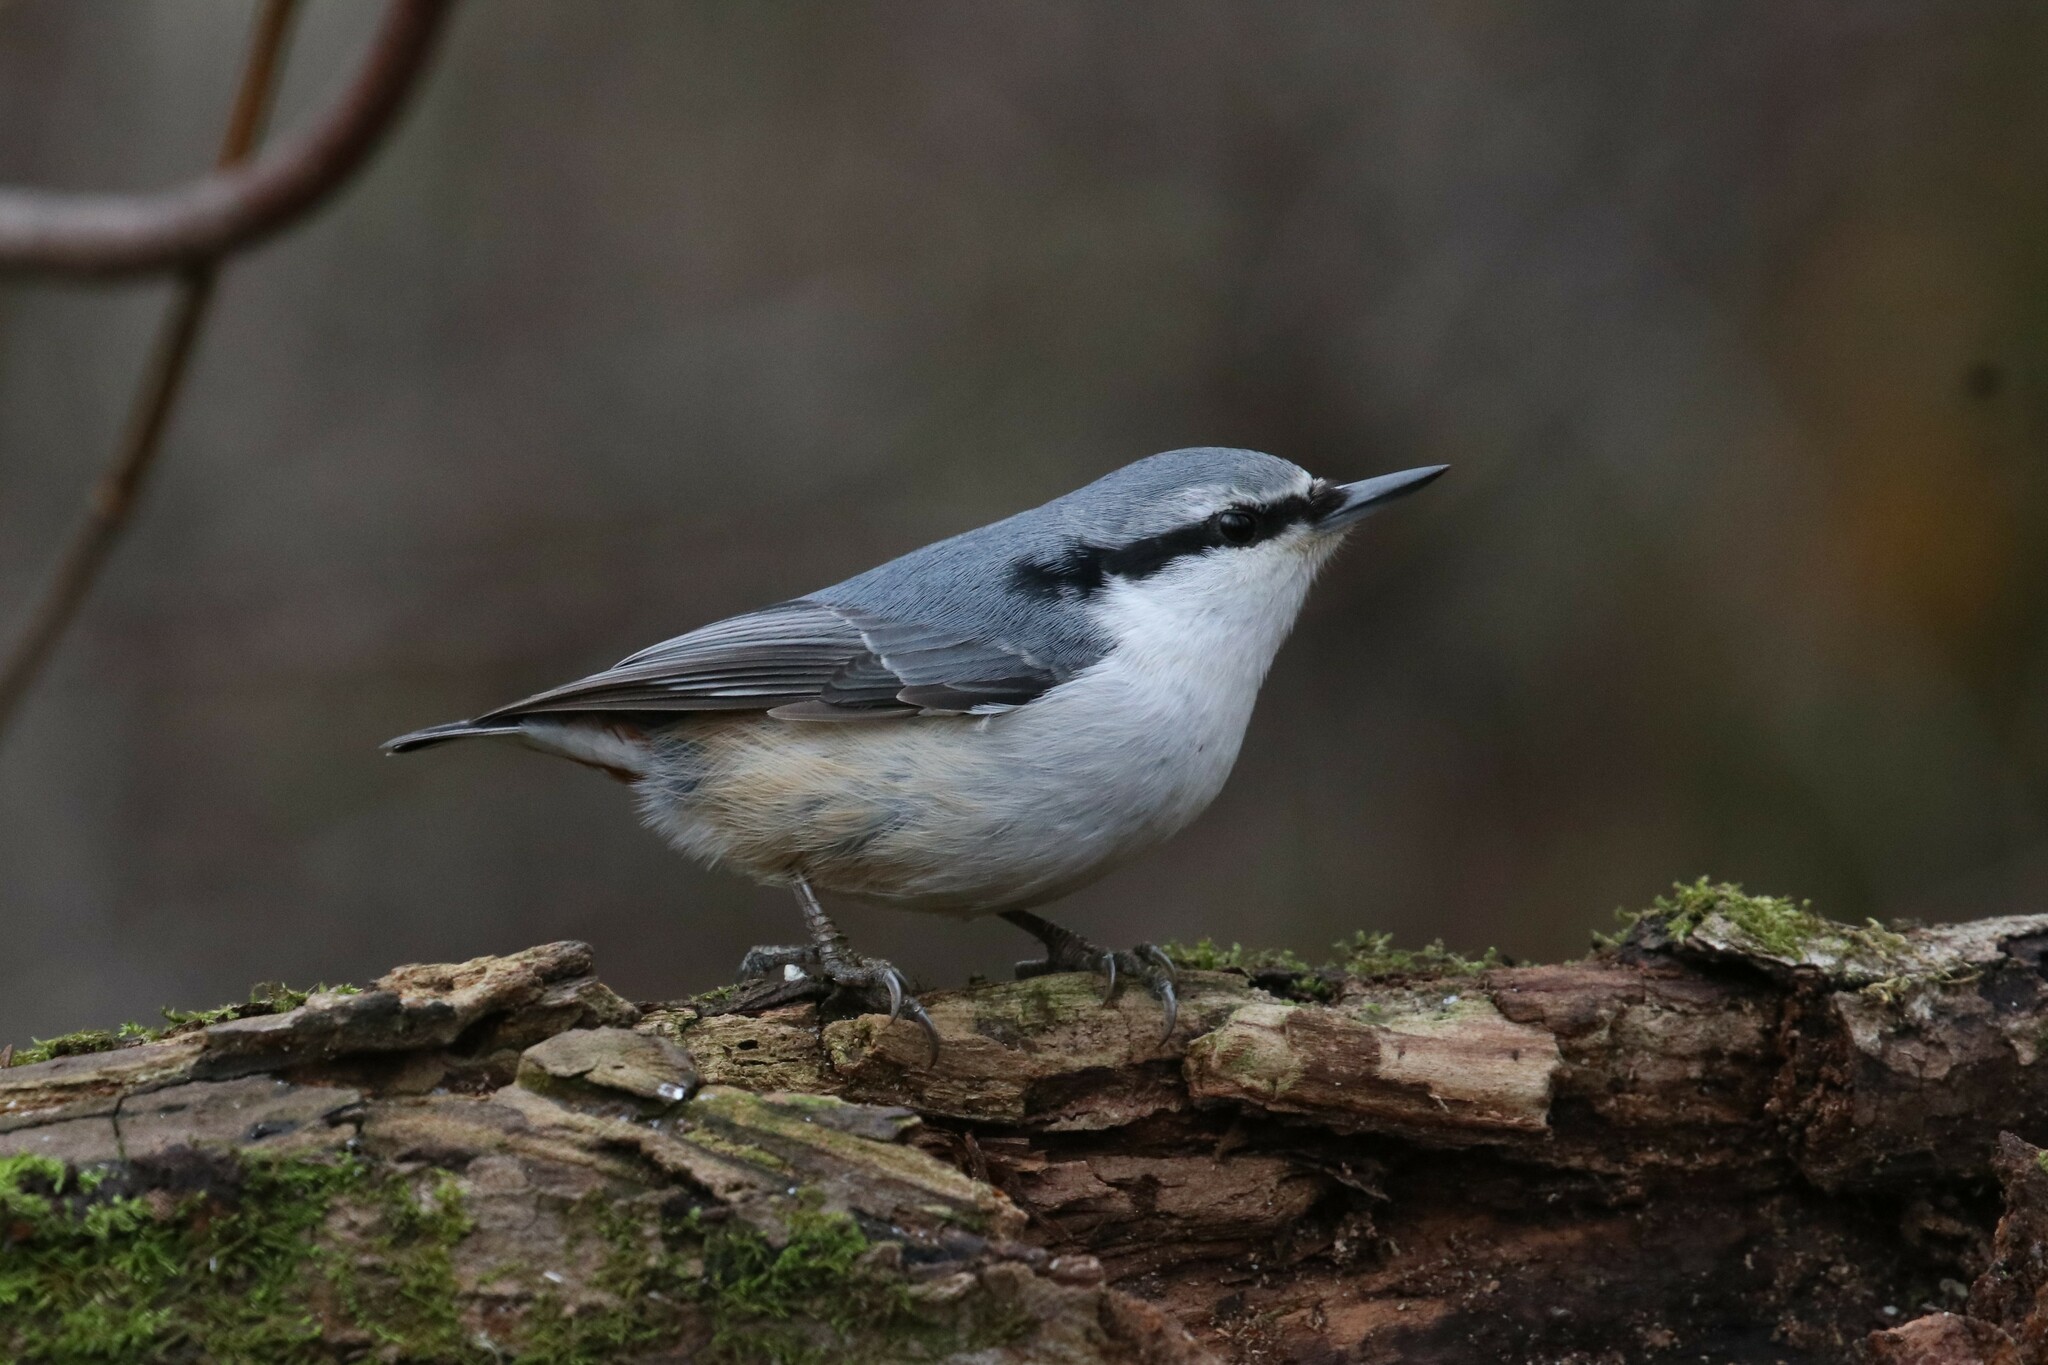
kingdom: Animalia
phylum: Chordata
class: Aves
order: Passeriformes
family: Sittidae
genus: Sitta
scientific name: Sitta europaea
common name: Eurasian nuthatch
